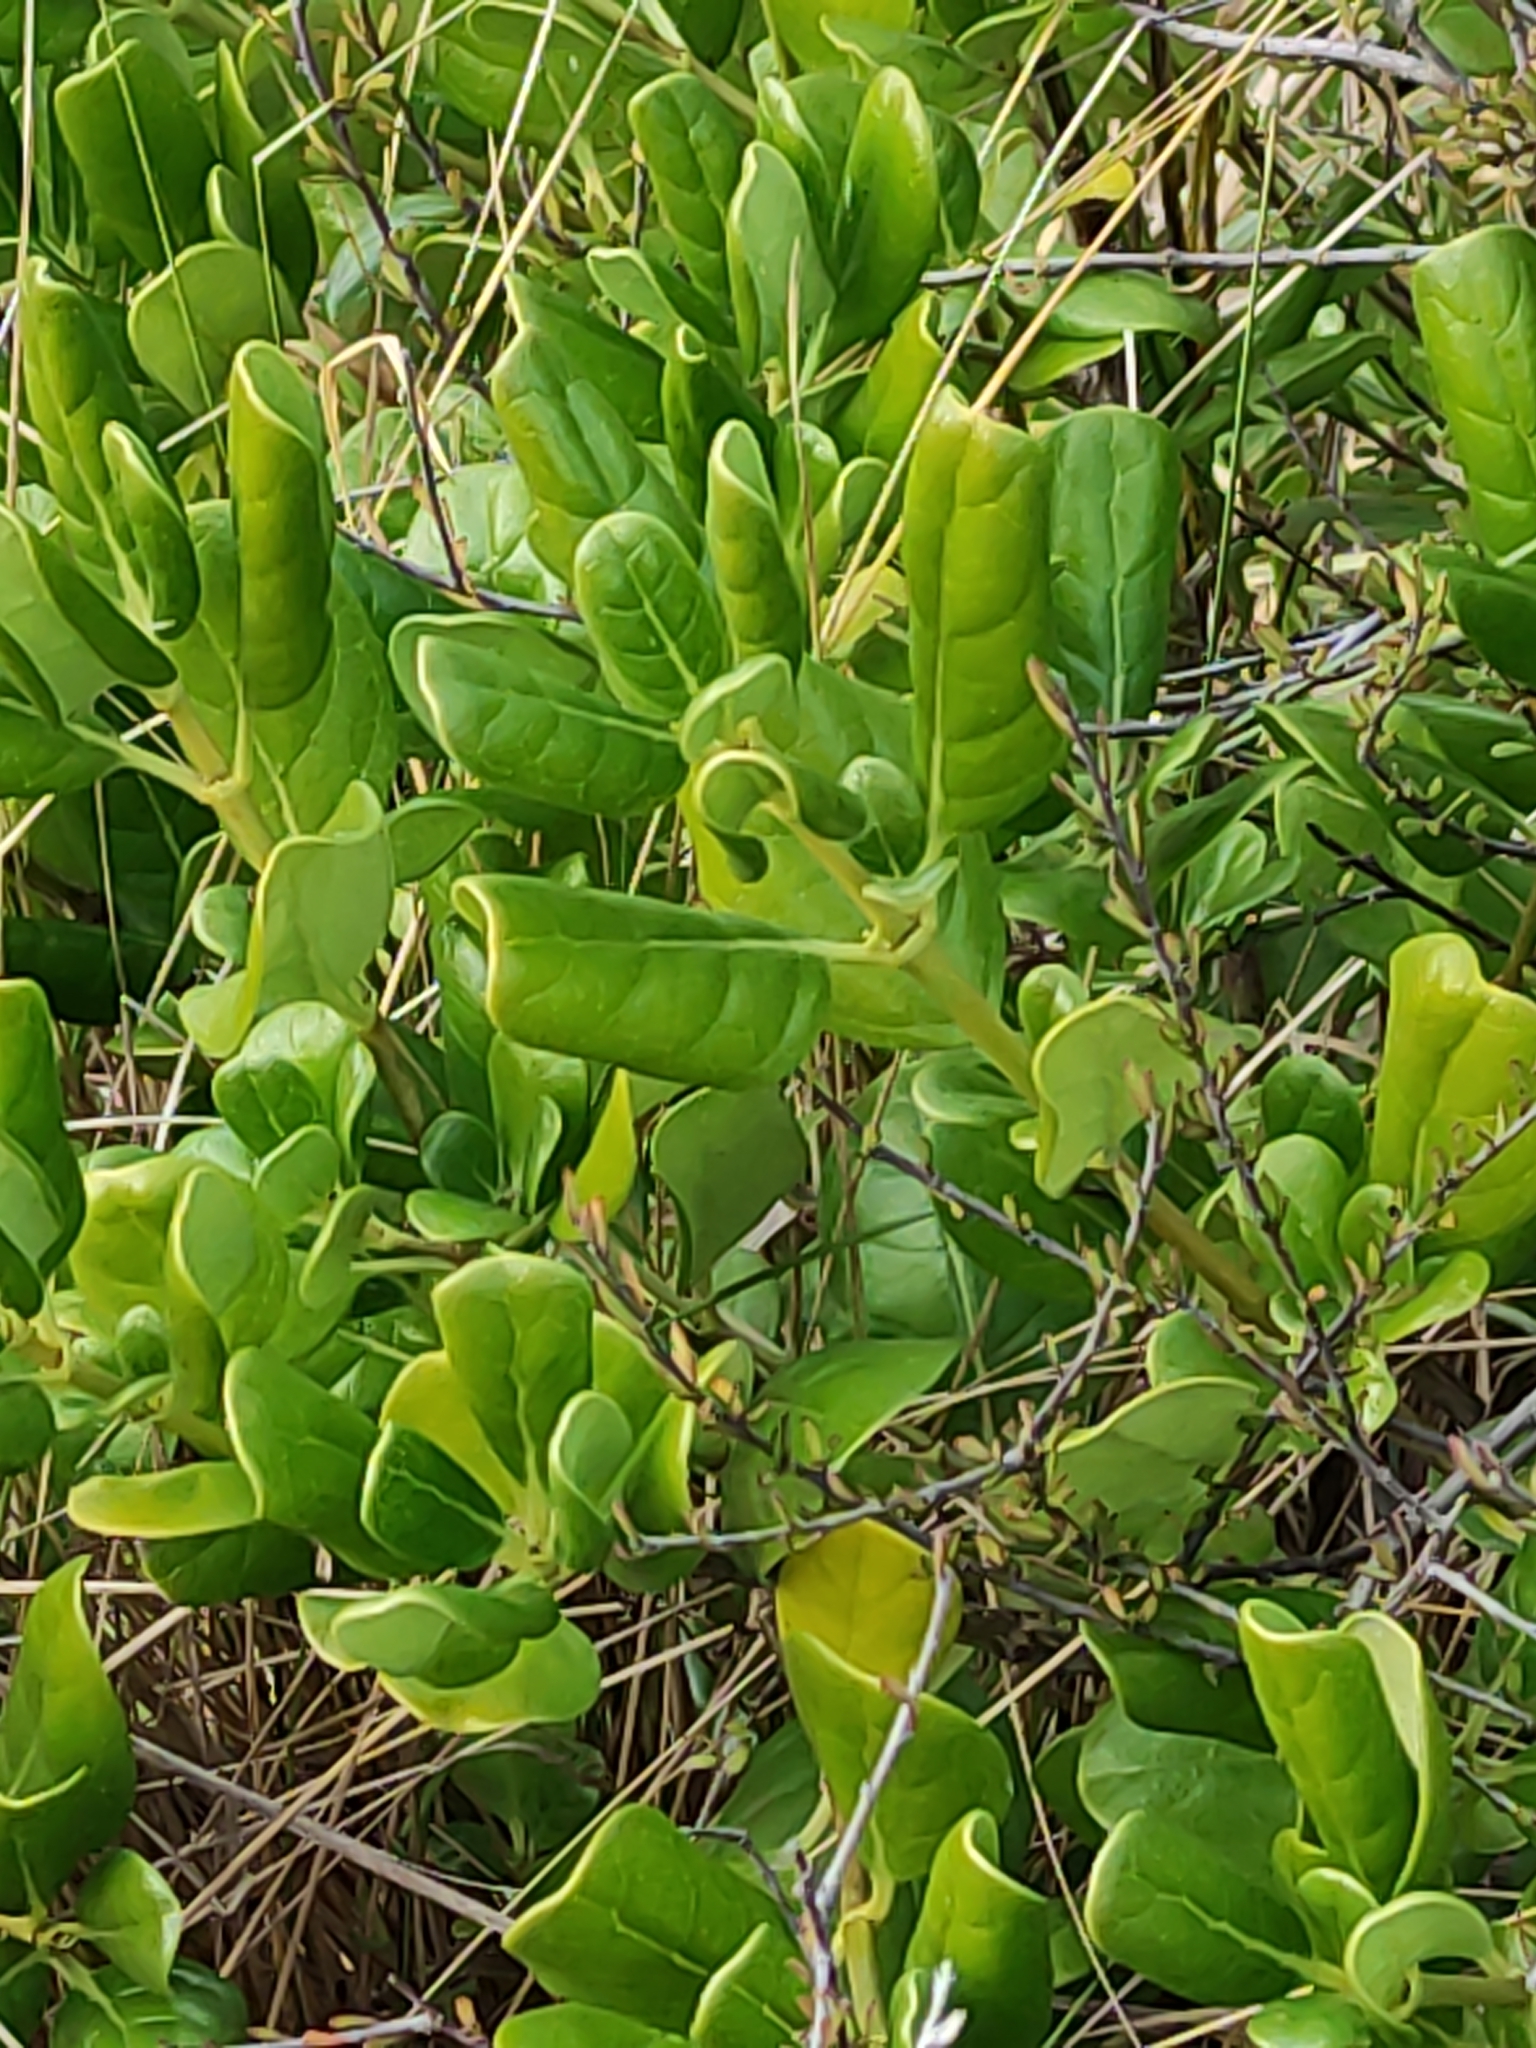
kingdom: Plantae
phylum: Tracheophyta
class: Magnoliopsida
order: Gentianales
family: Rubiaceae
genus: Coprosma
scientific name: Coprosma repens
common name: Tree bedstraw
